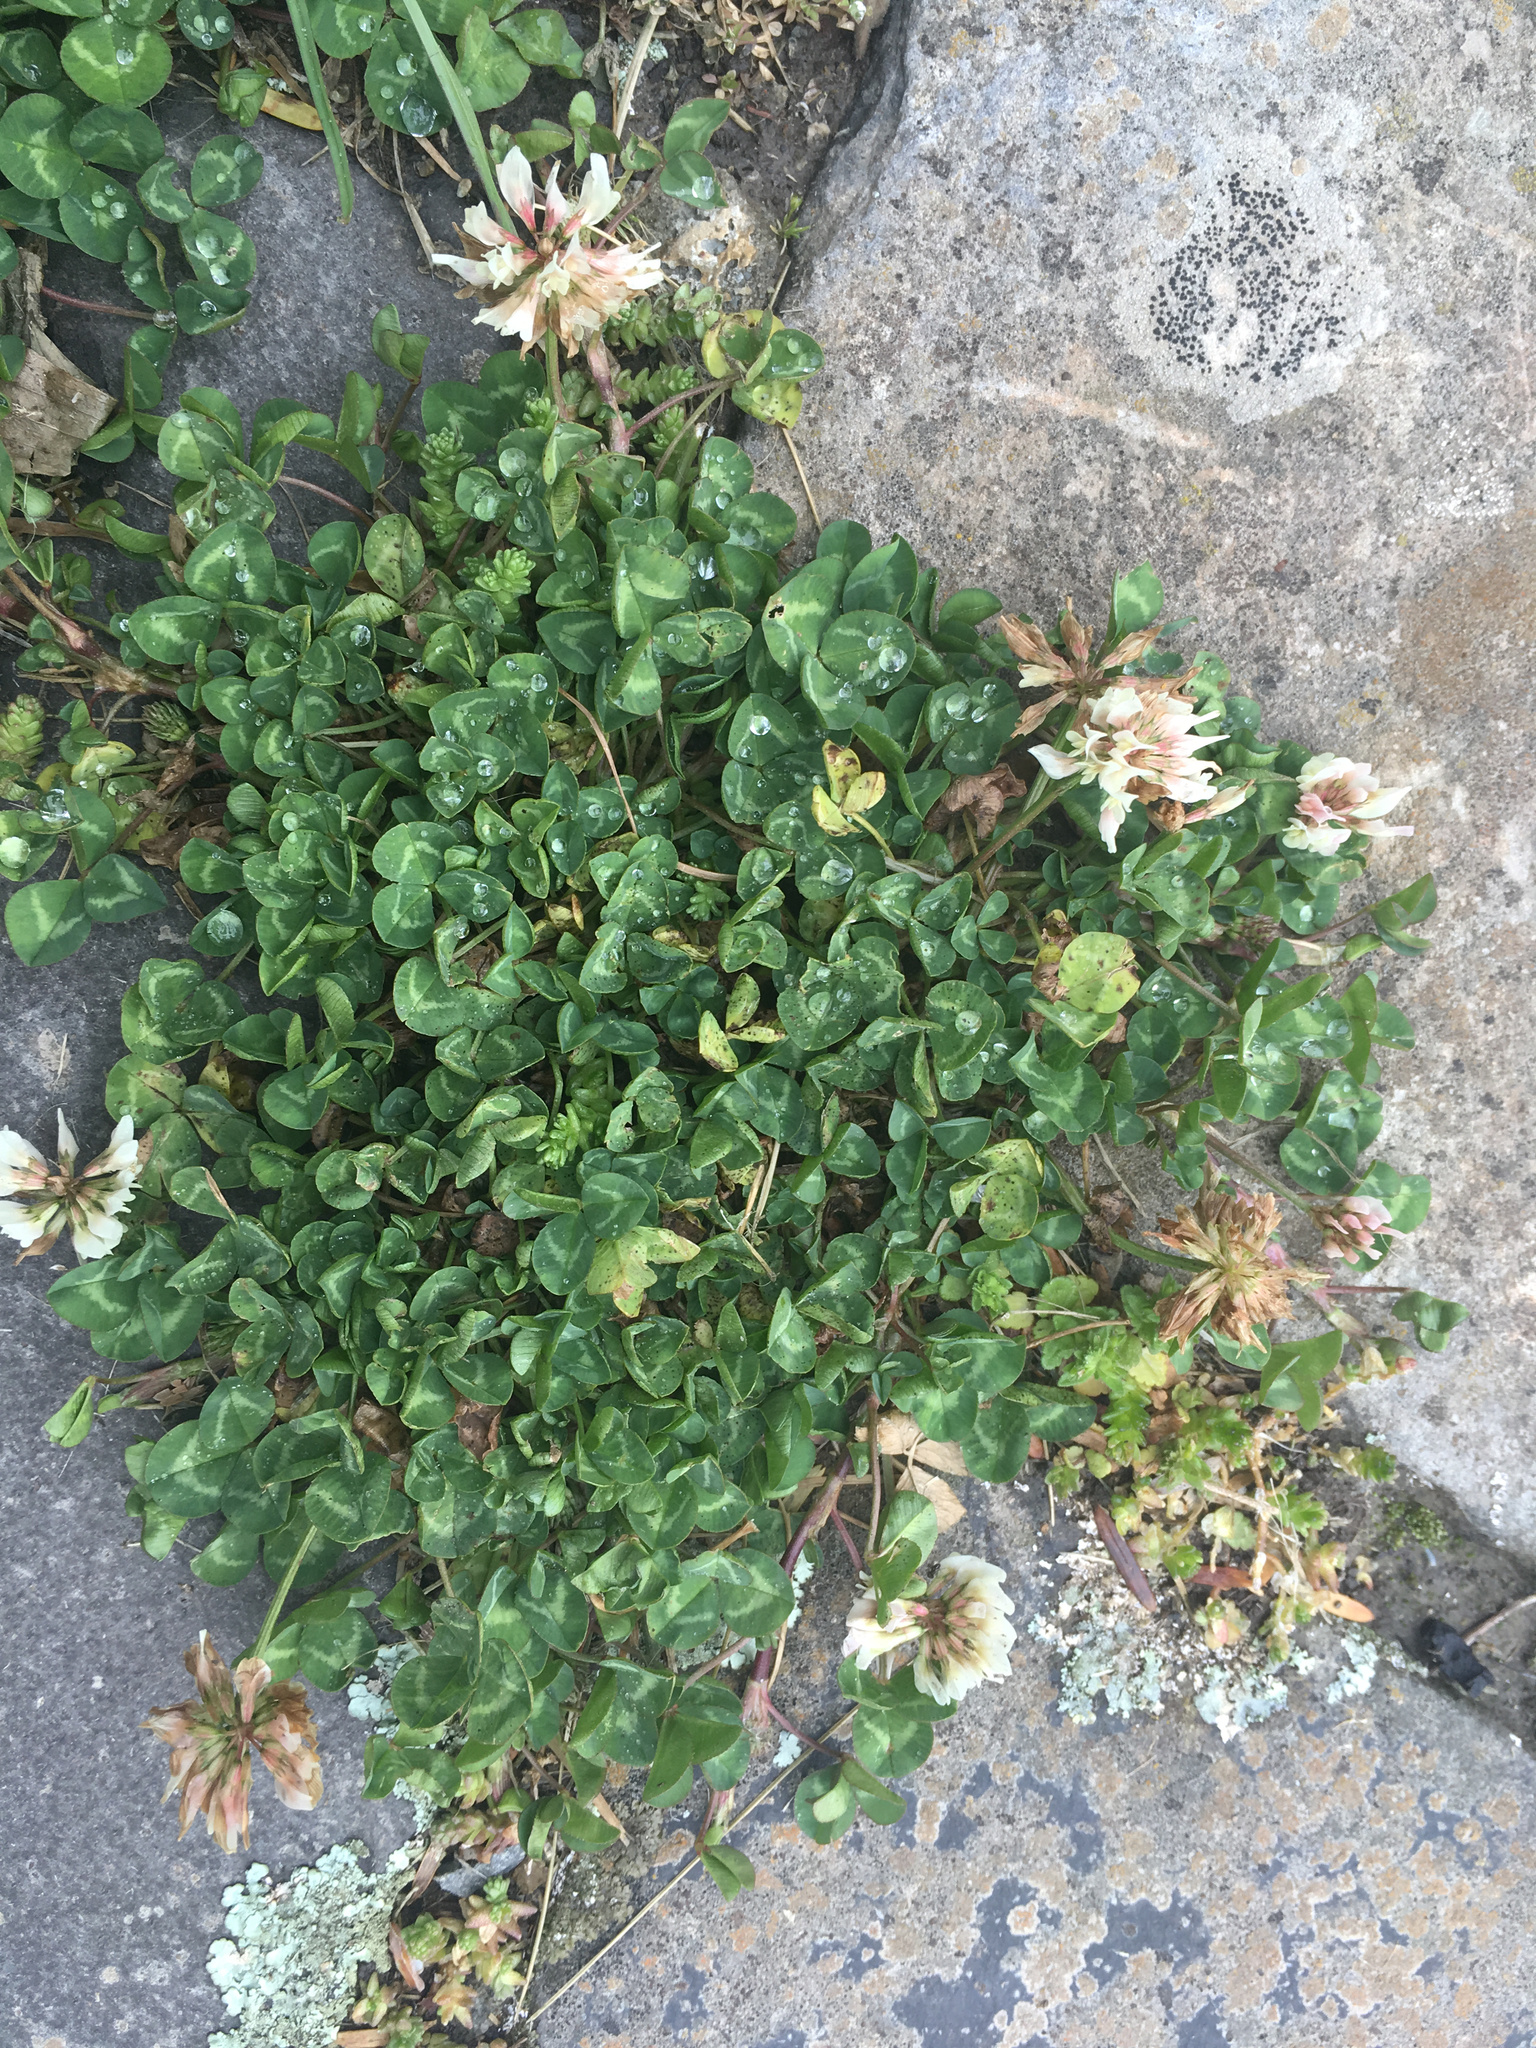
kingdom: Plantae
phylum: Tracheophyta
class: Magnoliopsida
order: Fabales
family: Fabaceae
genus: Trifolium
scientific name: Trifolium repens
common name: White clover
